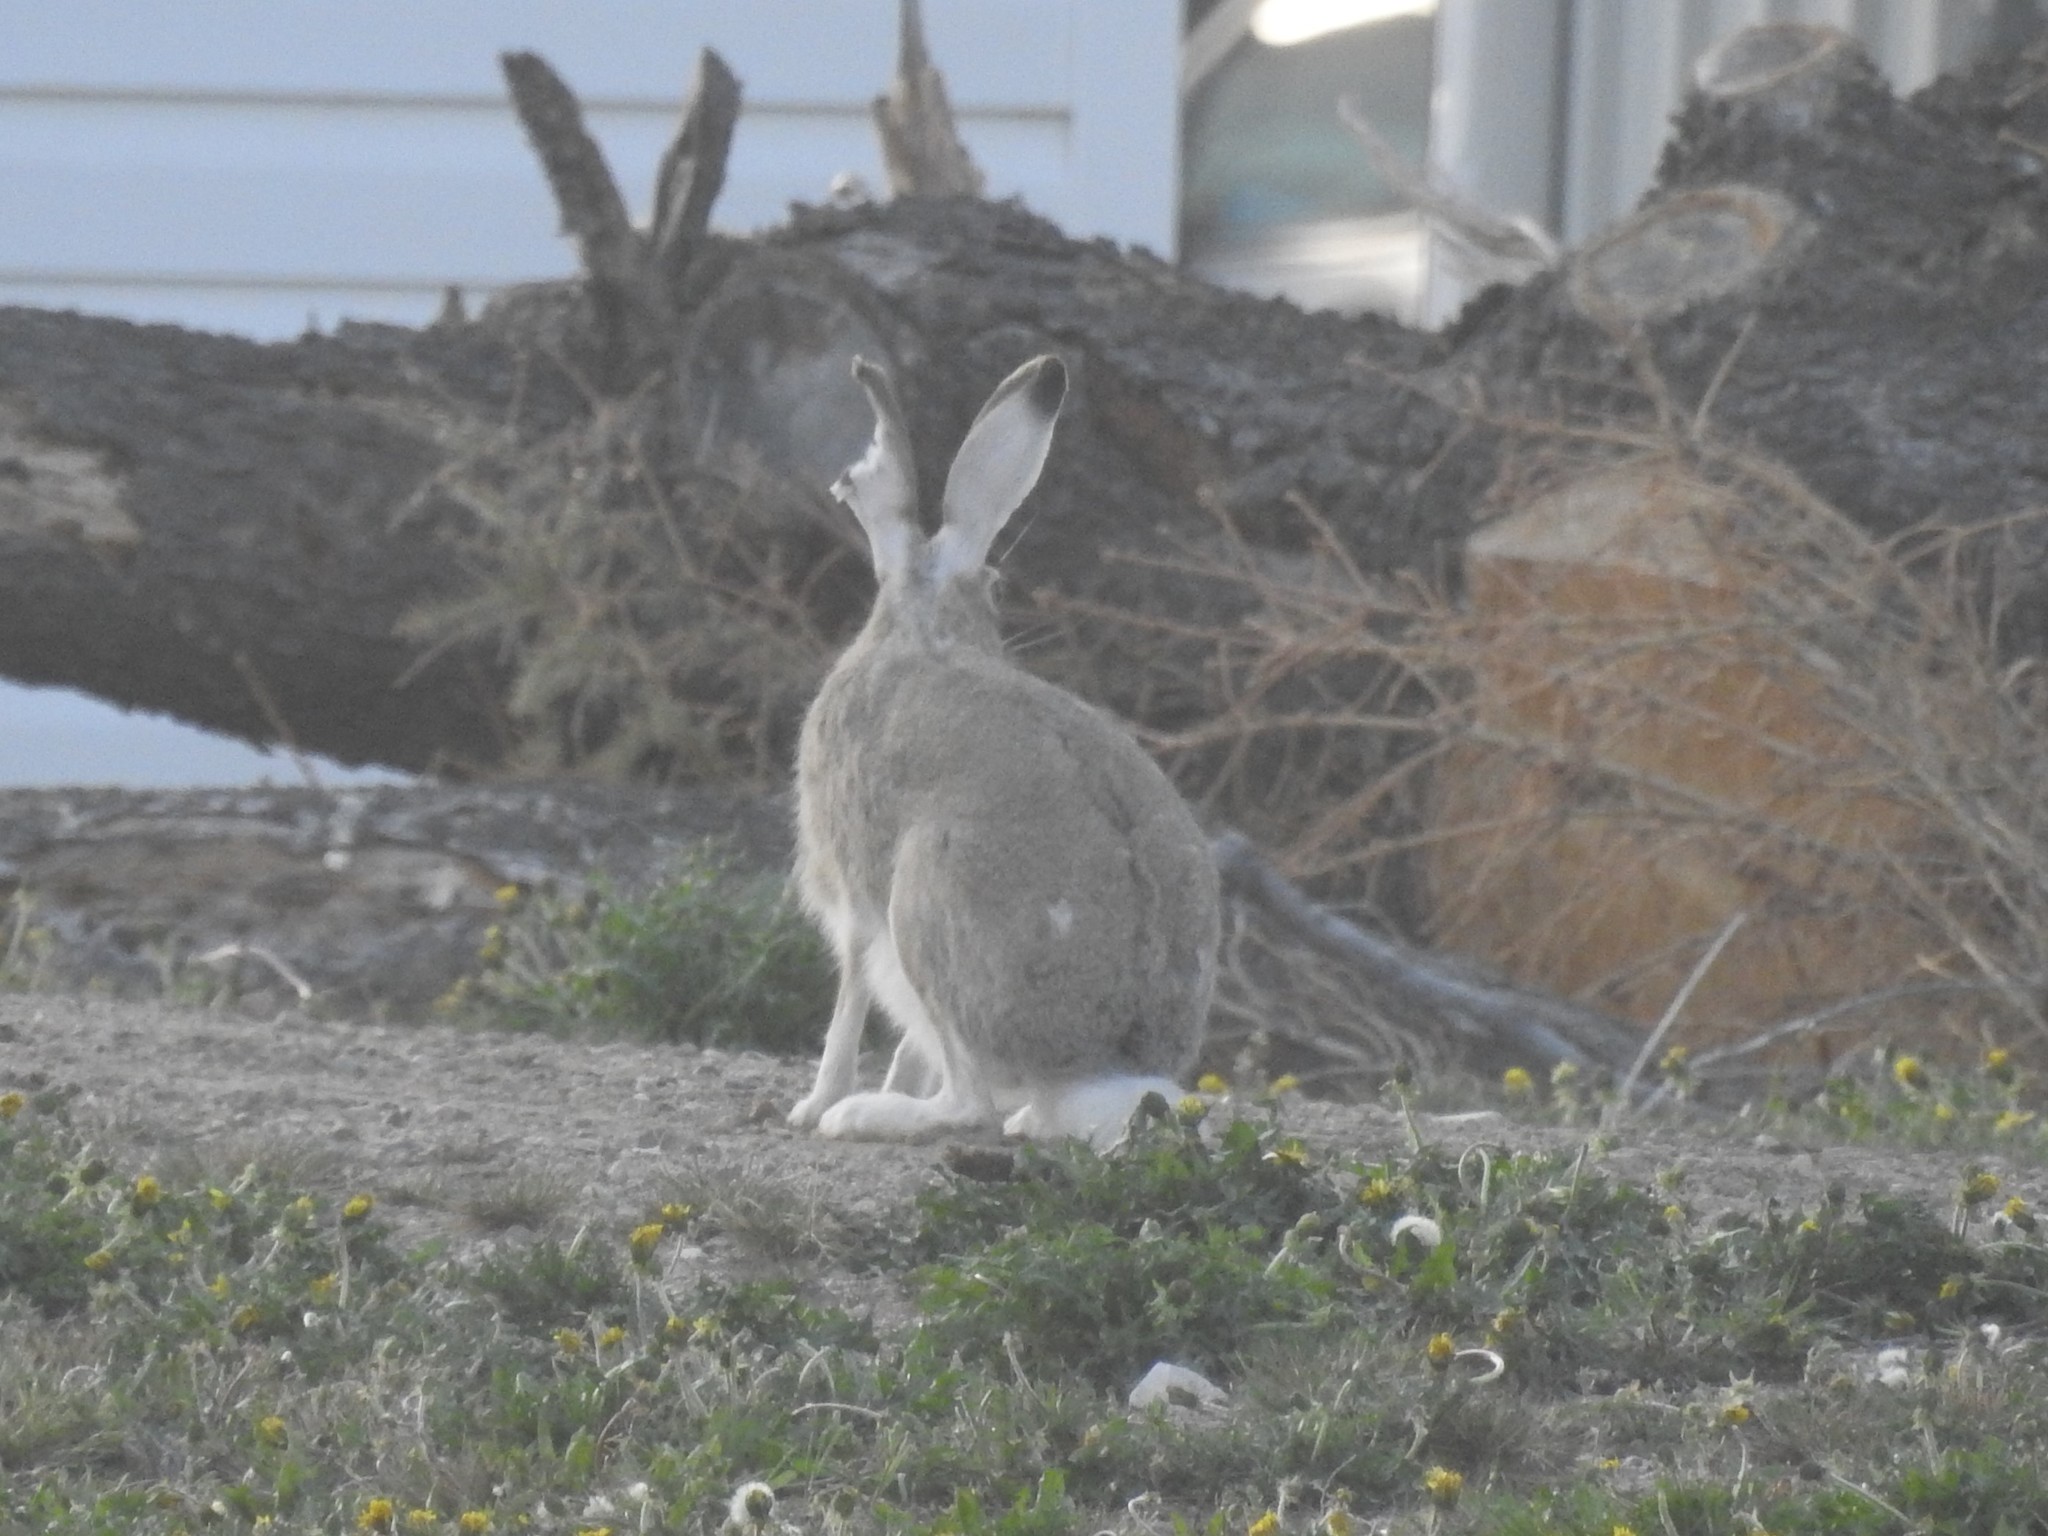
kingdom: Animalia
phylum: Chordata
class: Mammalia
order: Lagomorpha
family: Leporidae
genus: Lepus
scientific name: Lepus townsendii
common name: White-tailed jackrabbit
